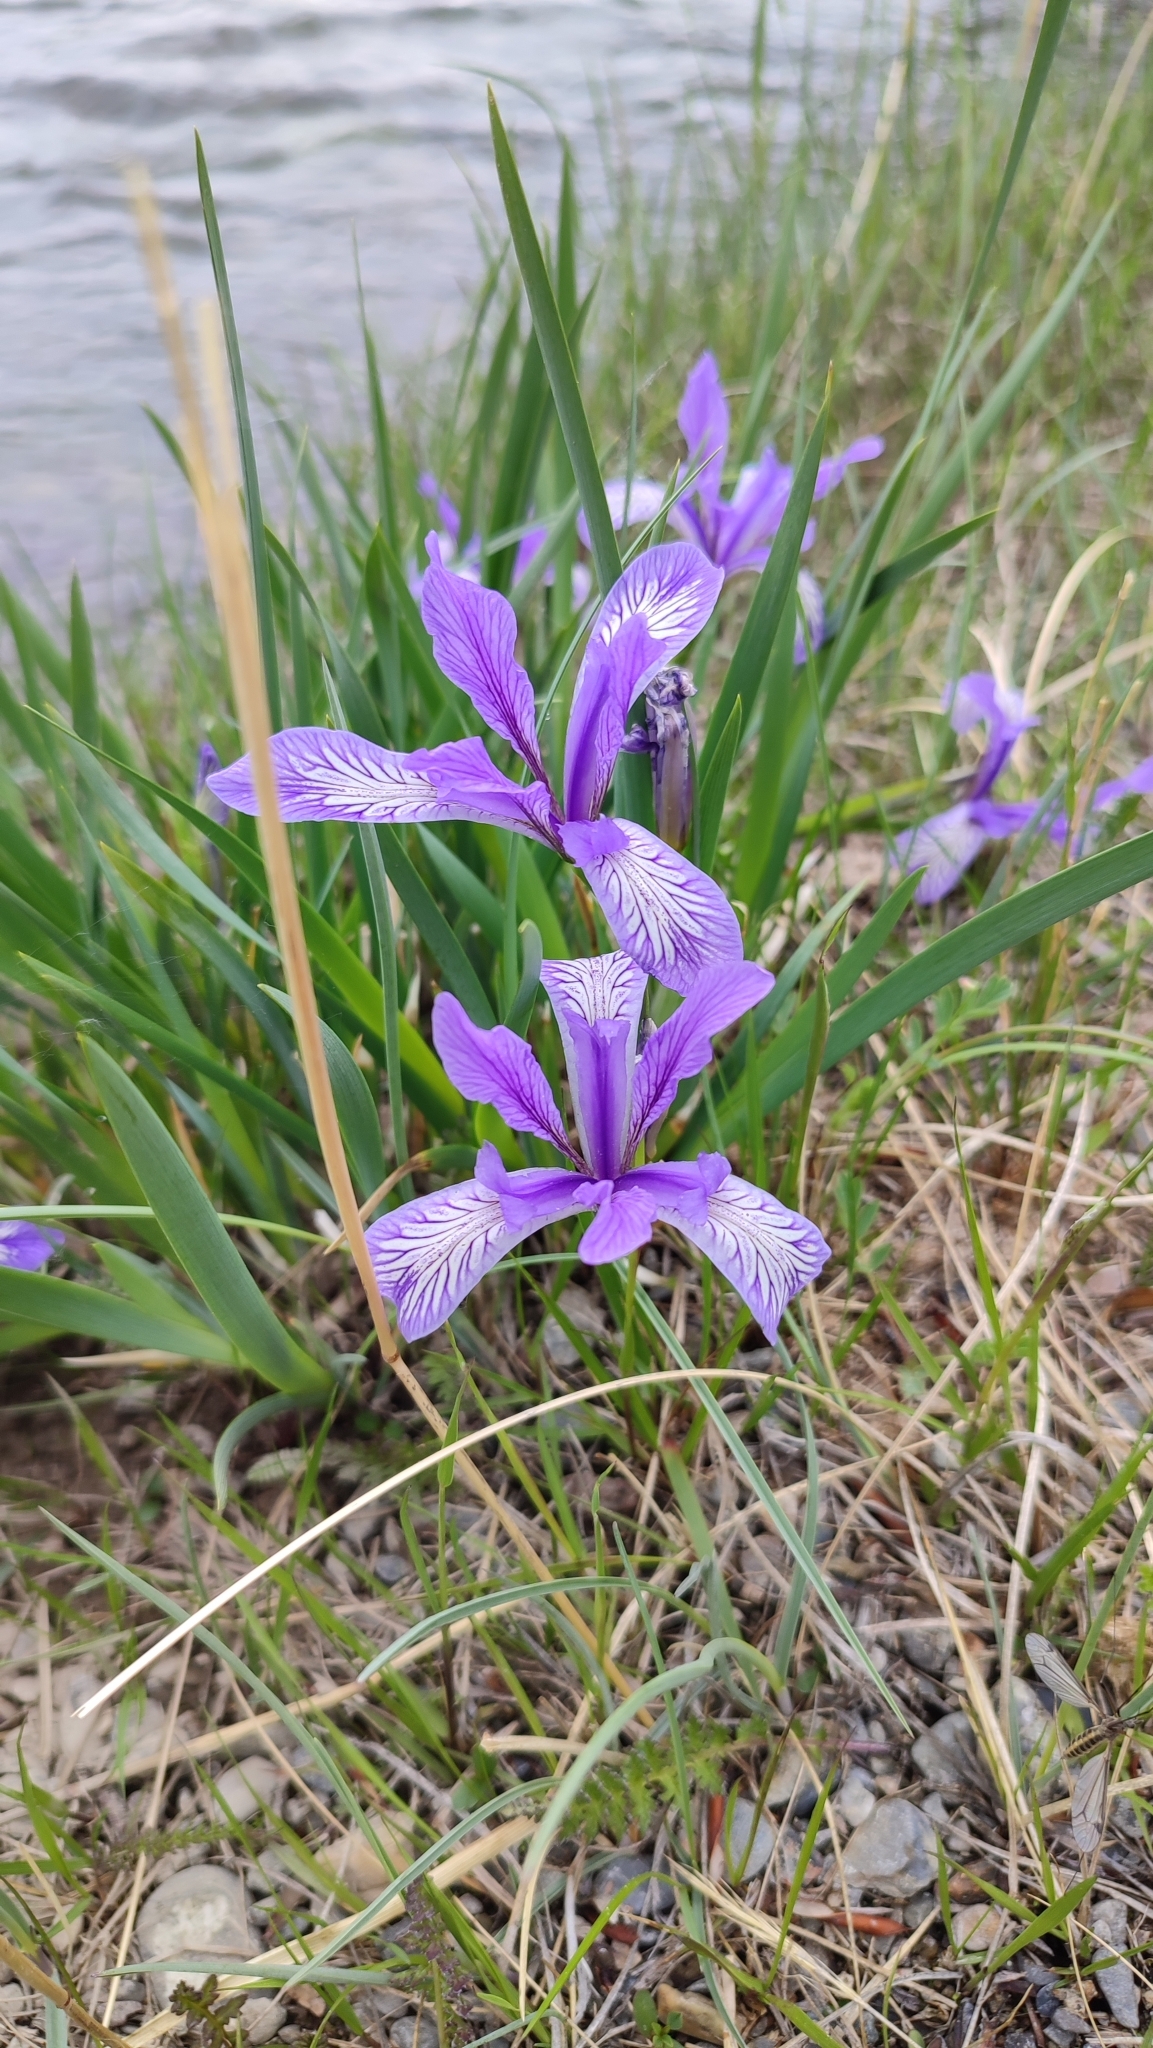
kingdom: Plantae
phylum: Tracheophyta
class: Liliopsida
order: Asparagales
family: Iridaceae
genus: Iris
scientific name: Iris lactea
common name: White-flower chinese iris
